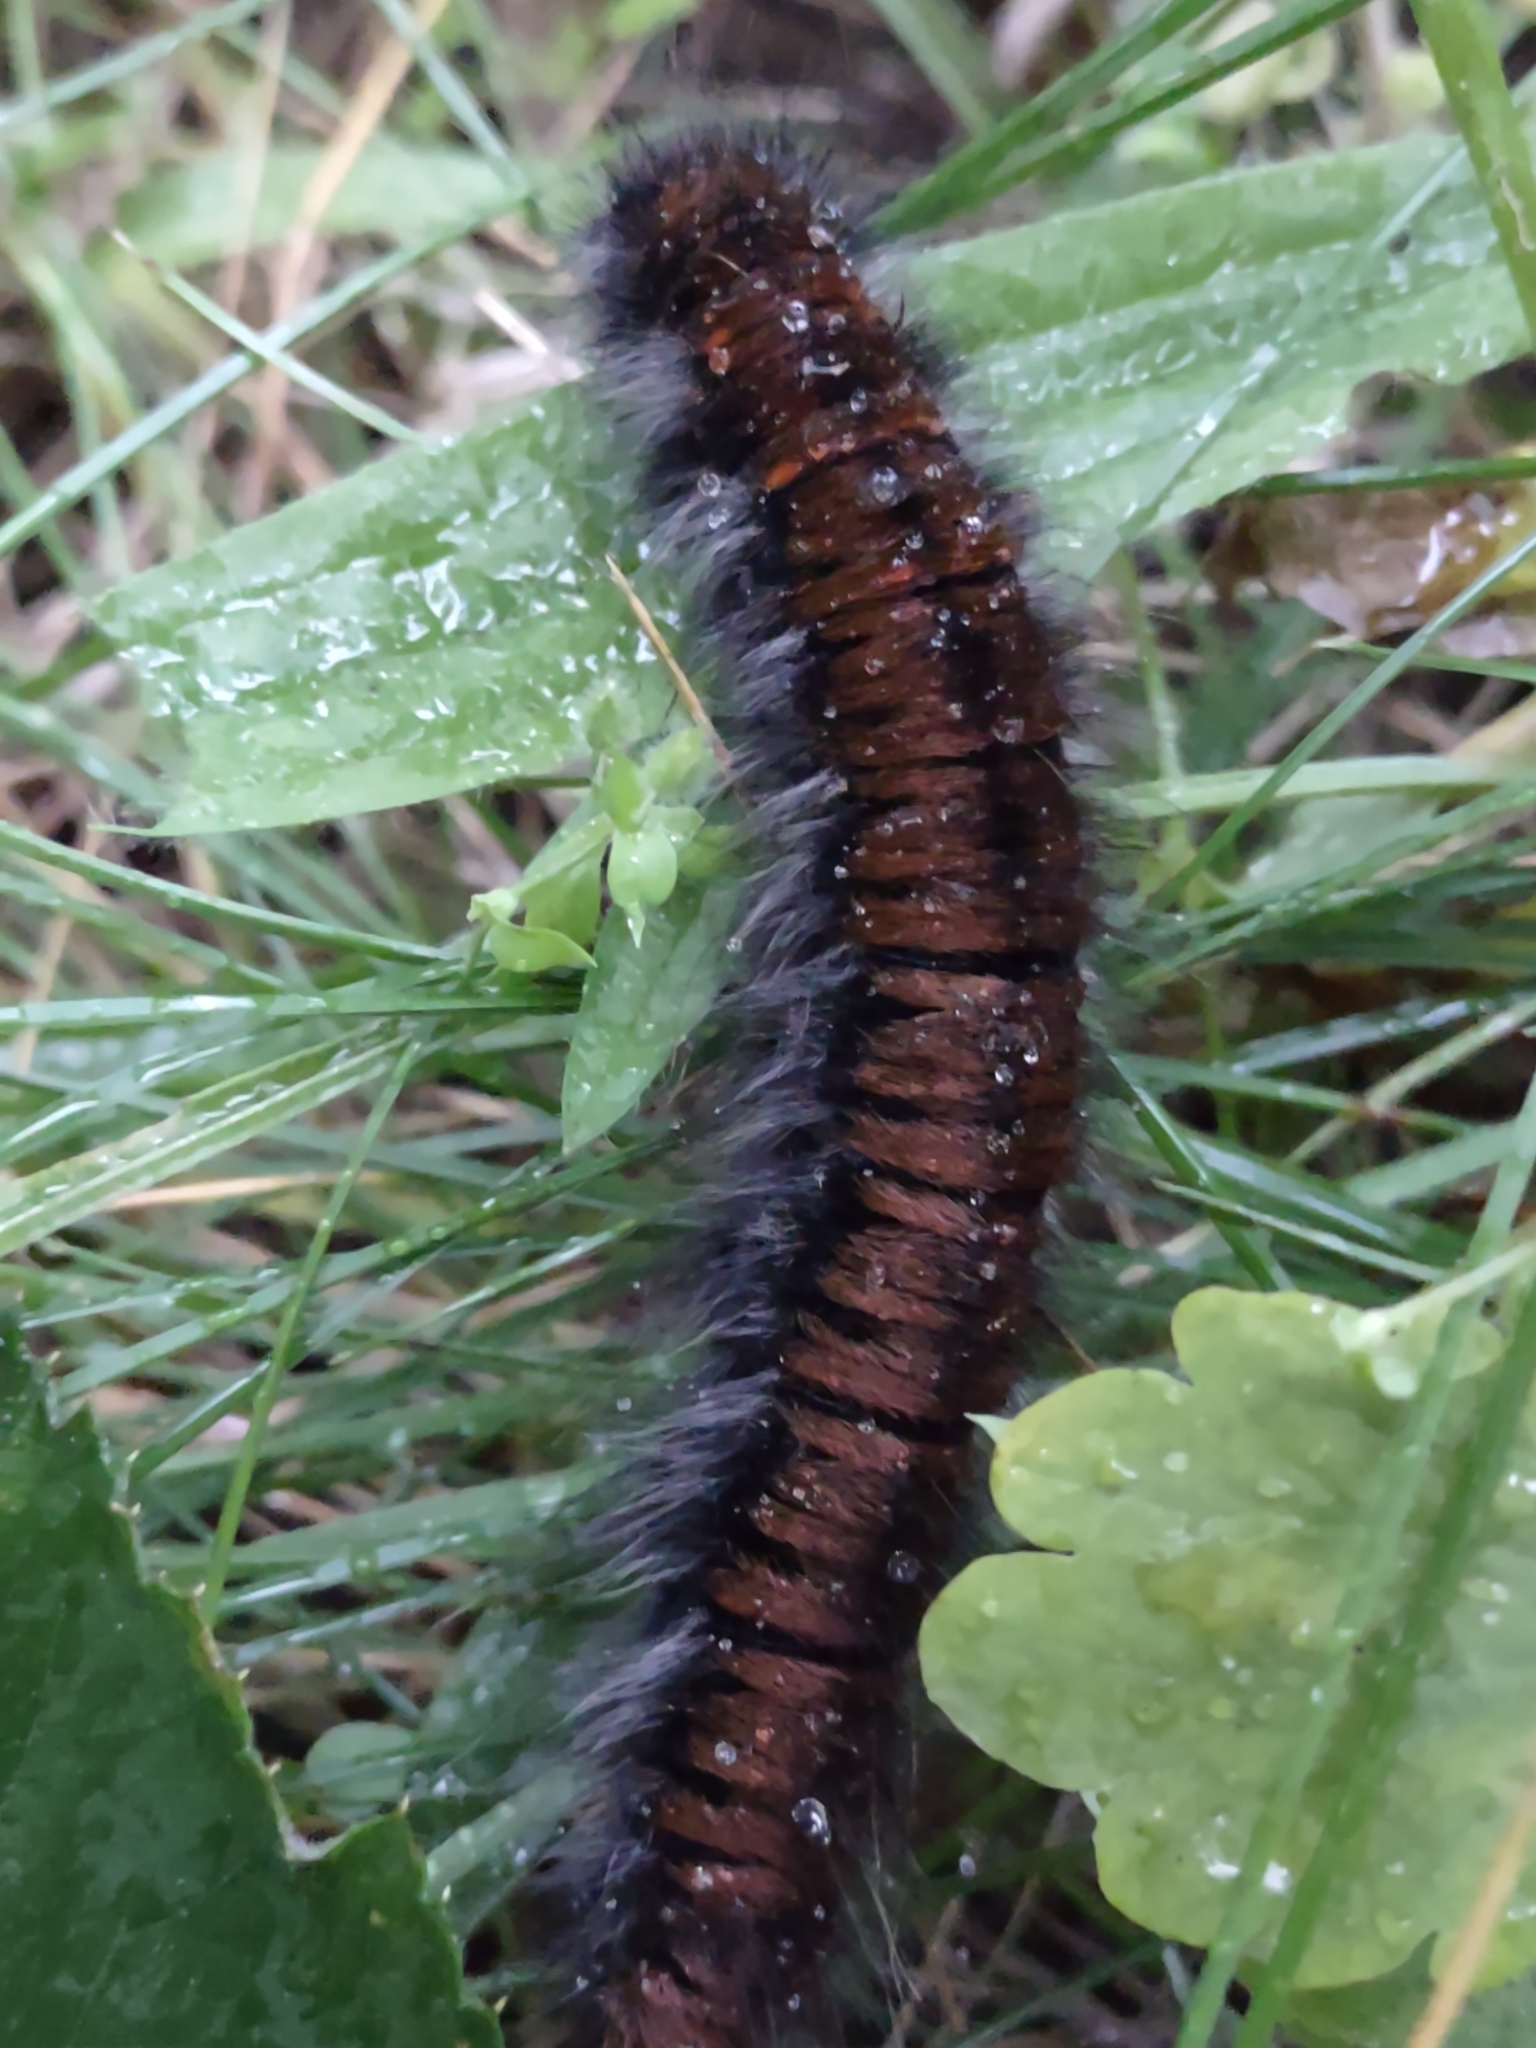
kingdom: Animalia
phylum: Arthropoda
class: Insecta
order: Lepidoptera
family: Lasiocampidae
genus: Macrothylacia
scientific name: Macrothylacia rubi
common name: Fox moth
